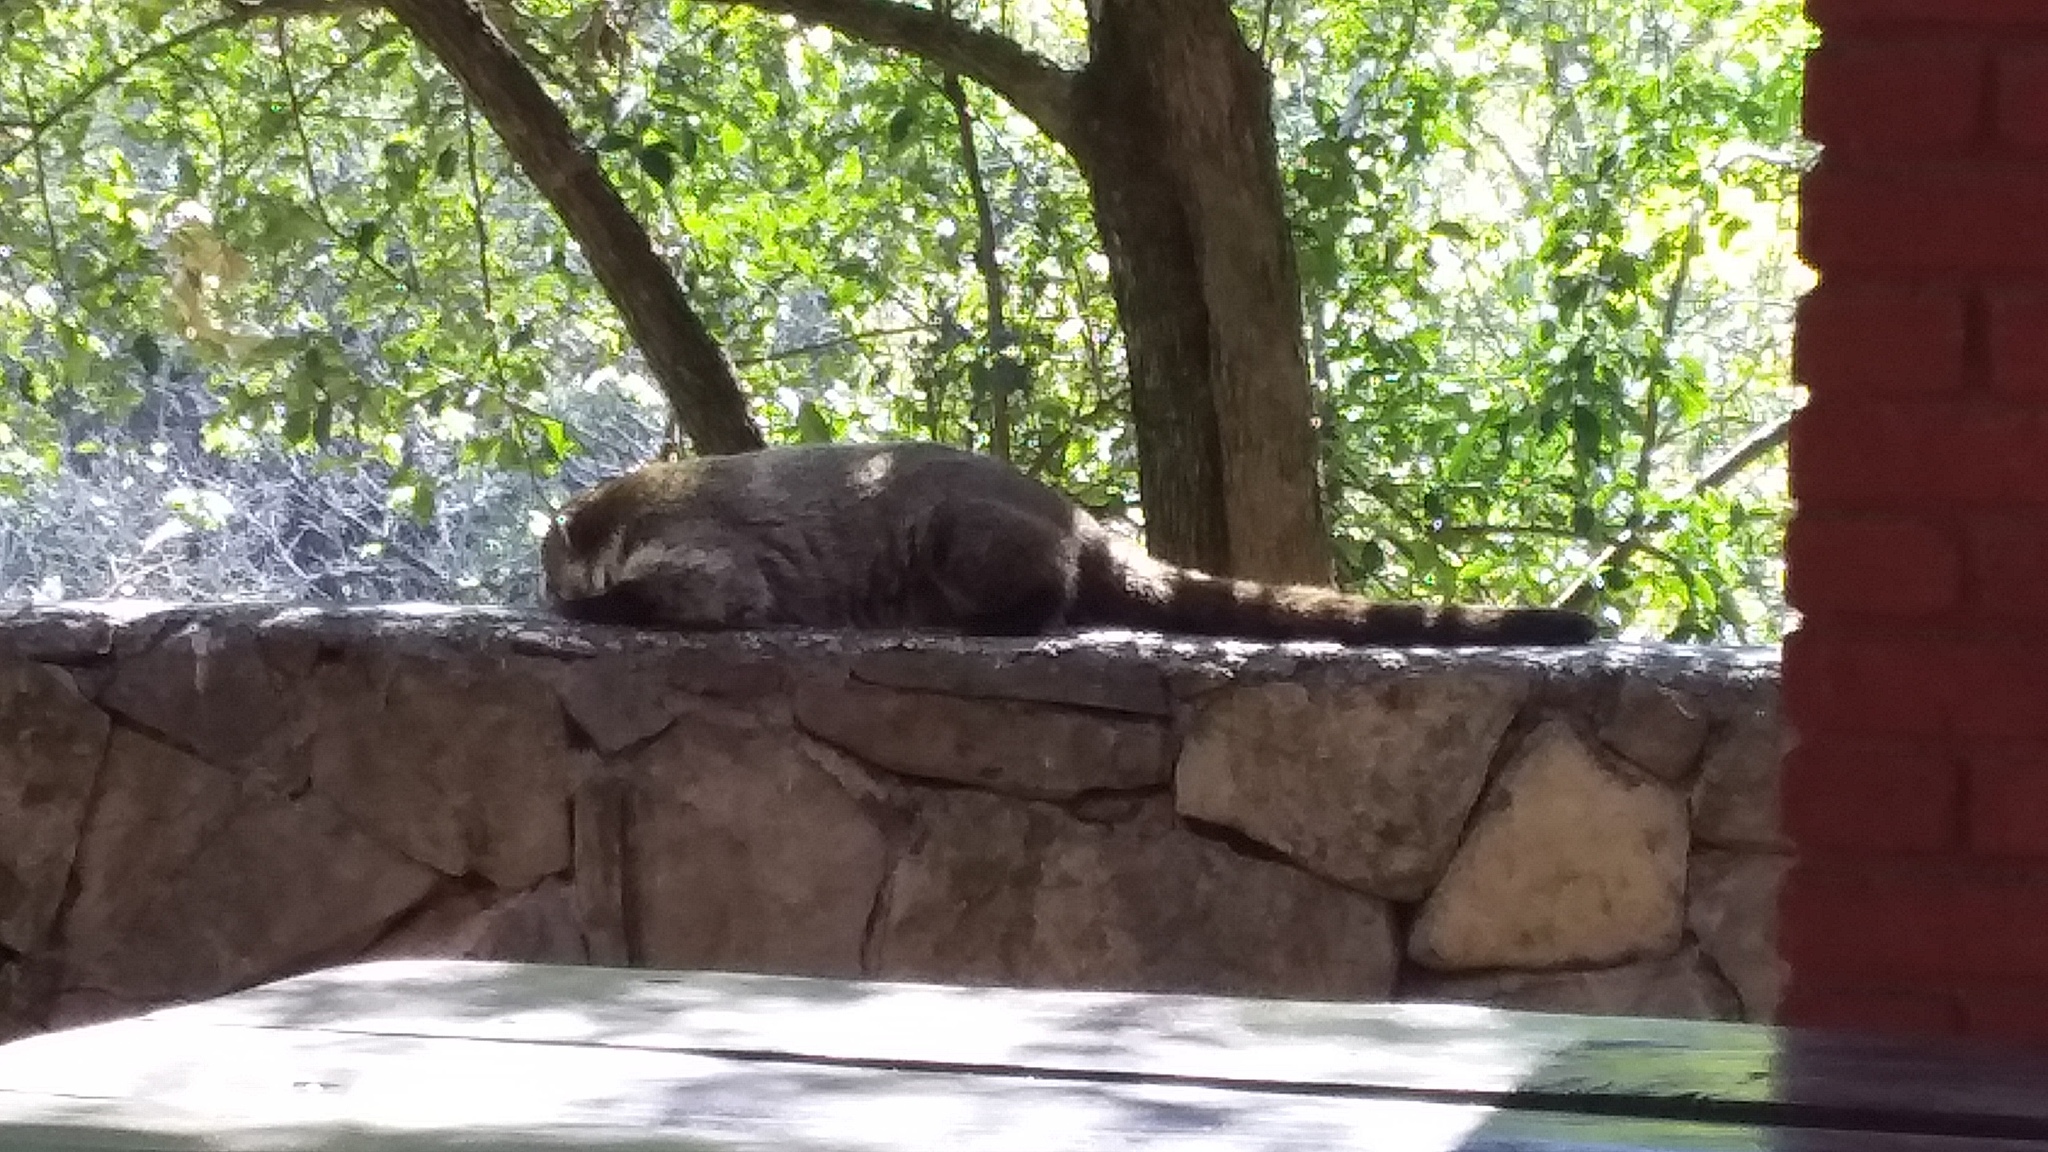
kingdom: Animalia
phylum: Chordata
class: Mammalia
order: Carnivora
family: Procyonidae
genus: Nasua
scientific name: Nasua narica
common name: White-nosed coati
